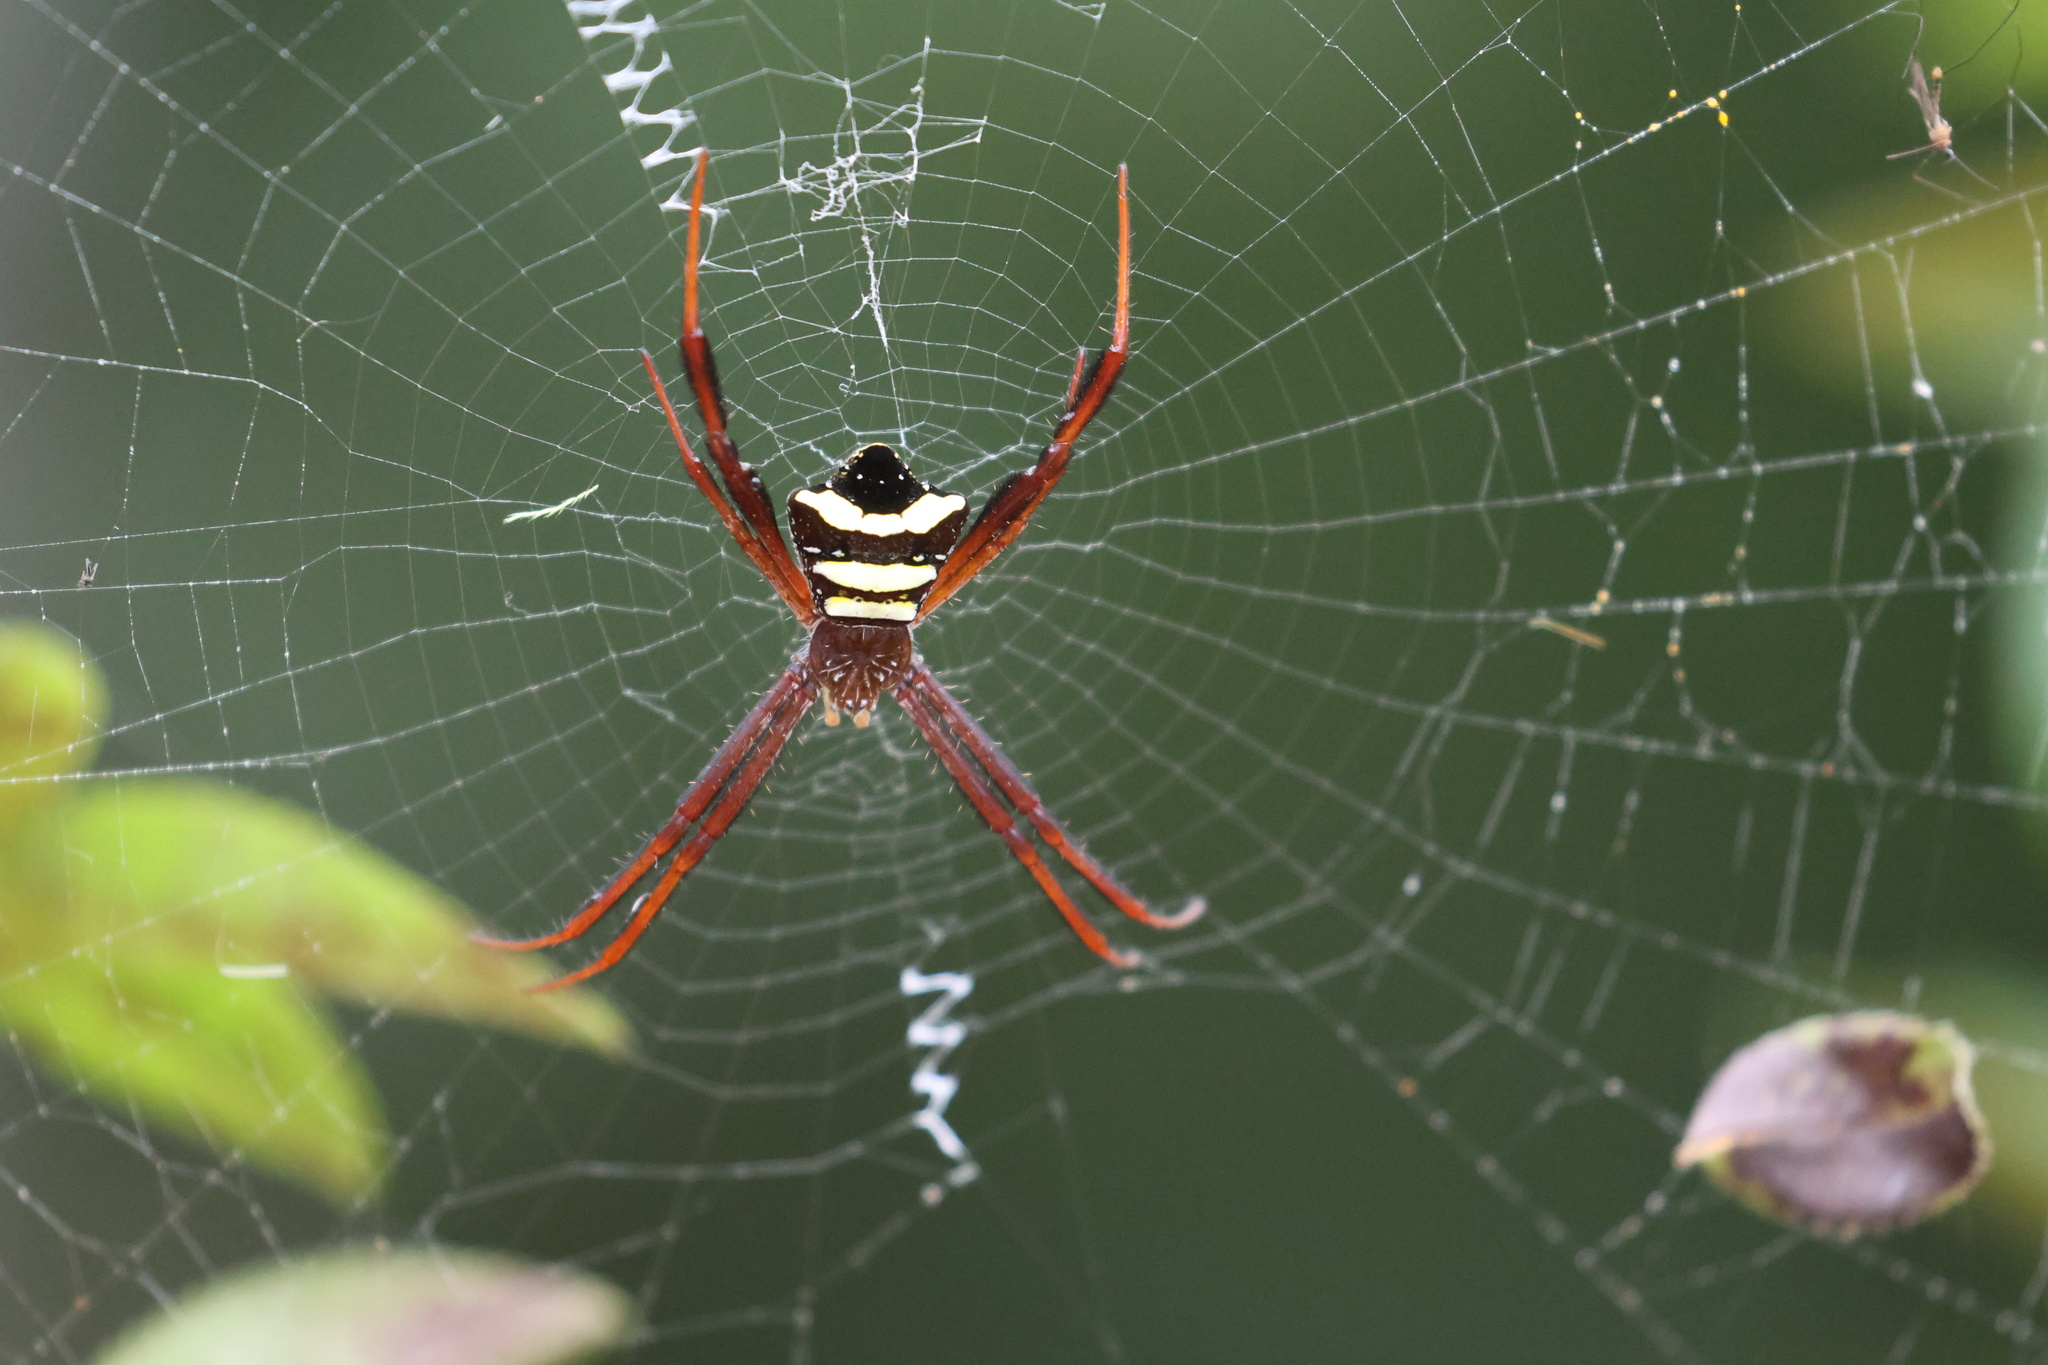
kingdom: Animalia
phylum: Arthropoda
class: Arachnida
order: Araneae
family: Araneidae
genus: Argiope
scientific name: Argiope reinwardti
